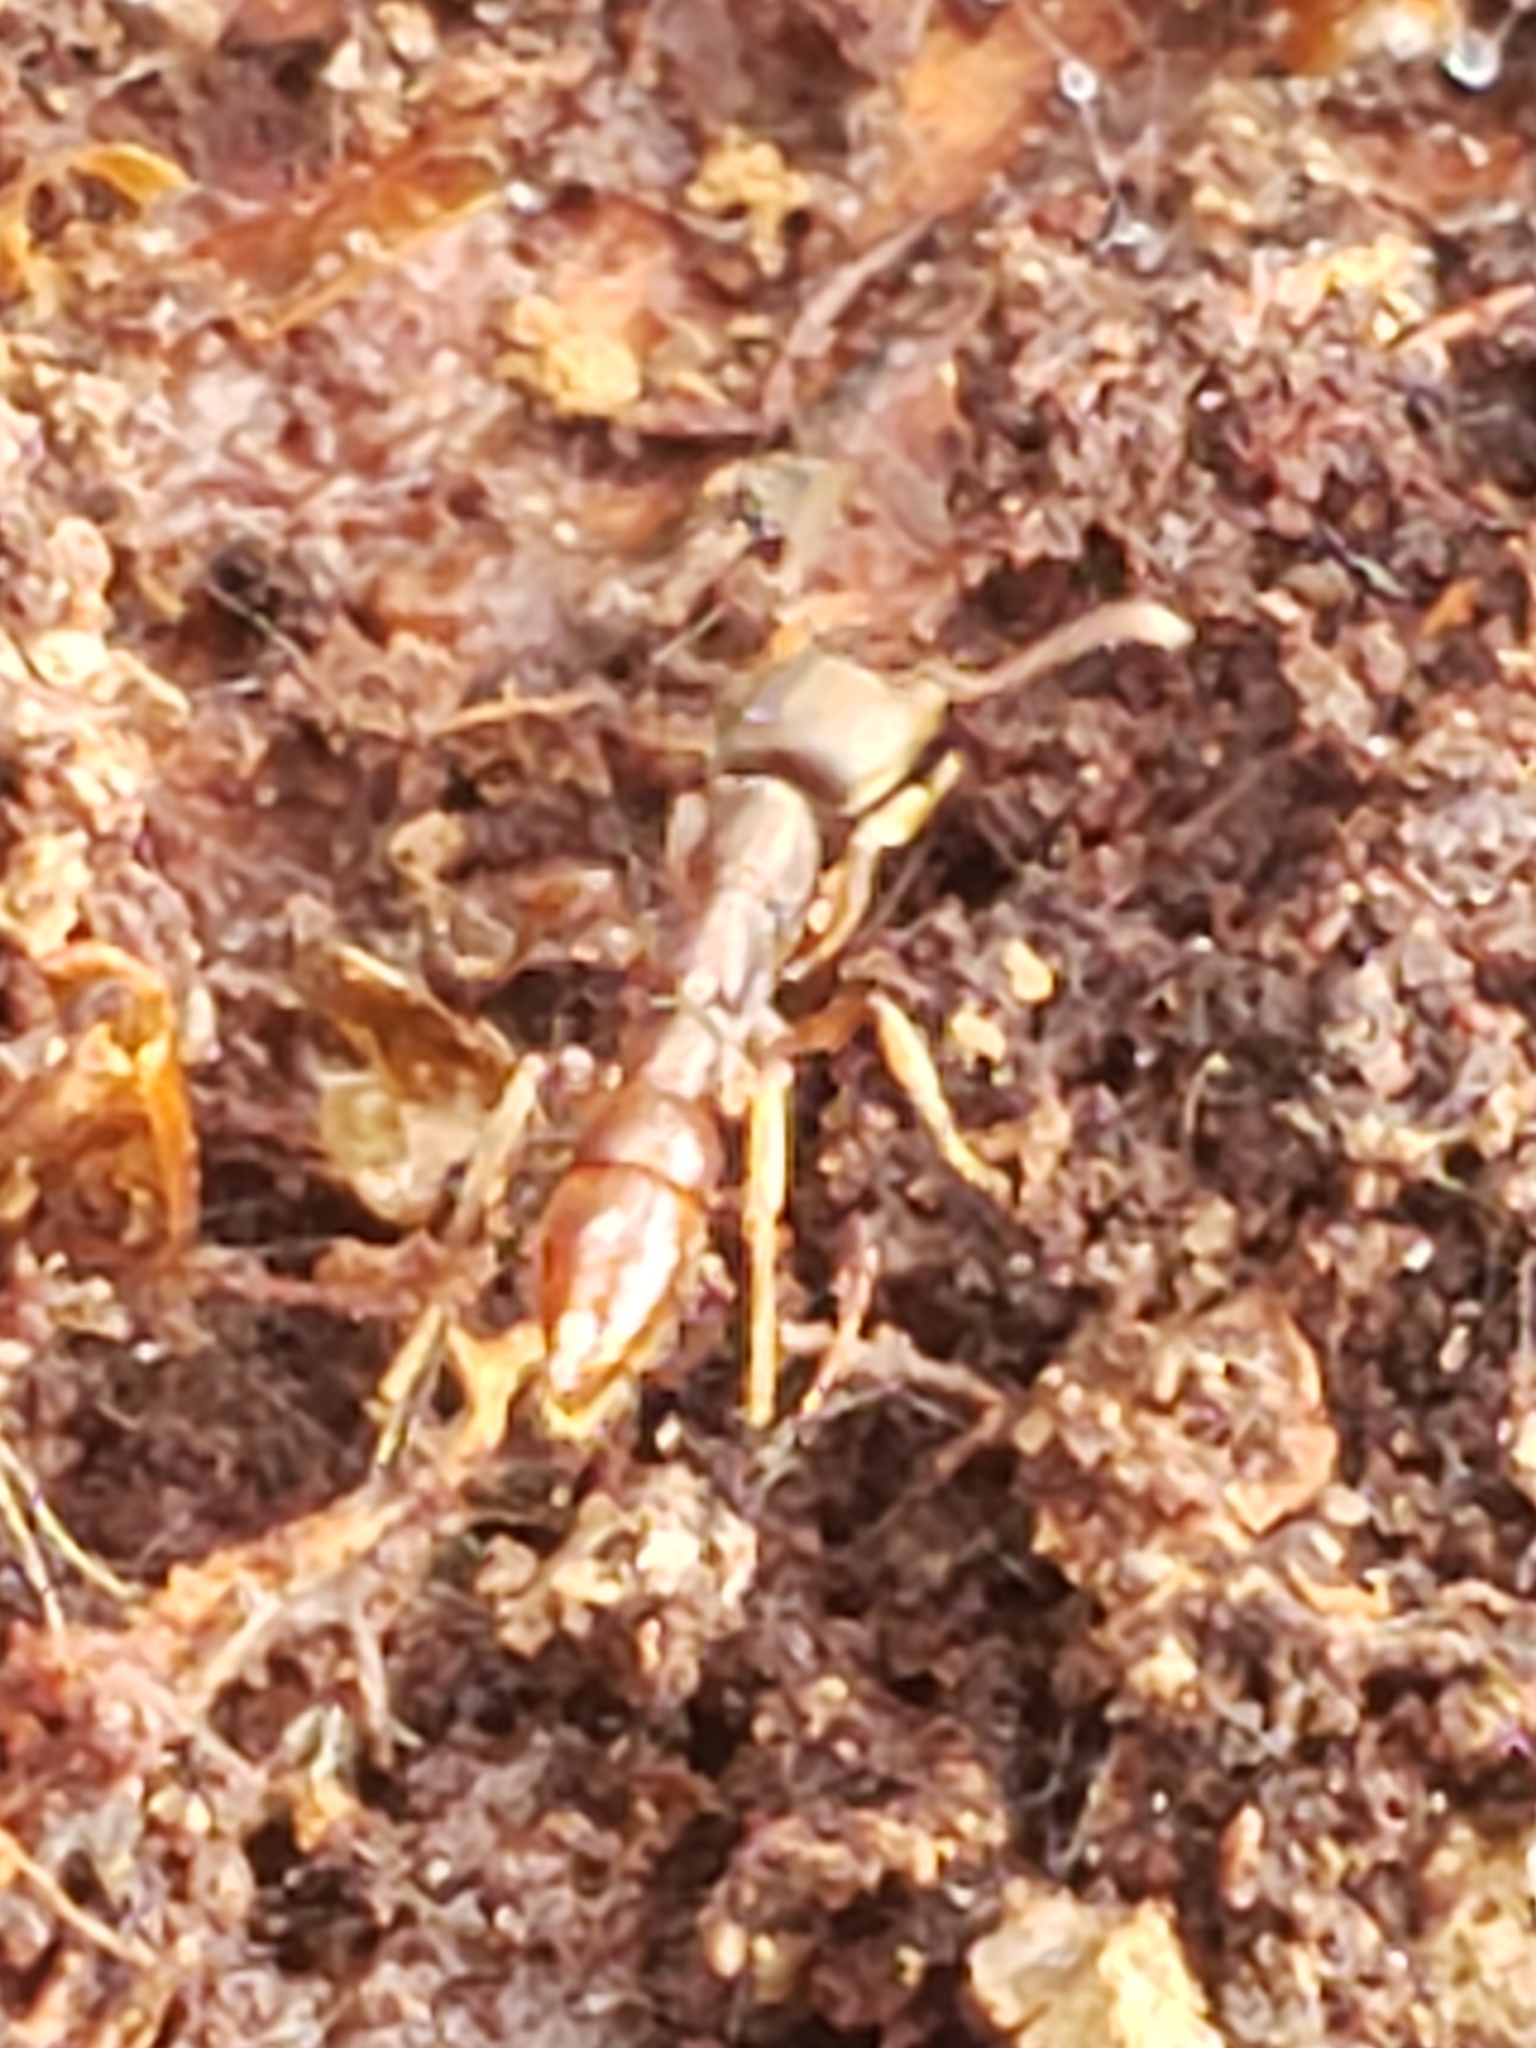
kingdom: Animalia
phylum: Arthropoda
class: Insecta
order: Hymenoptera
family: Formicidae
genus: Stigmatomma
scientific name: Stigmatomma pallipes
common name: Vampire ant
